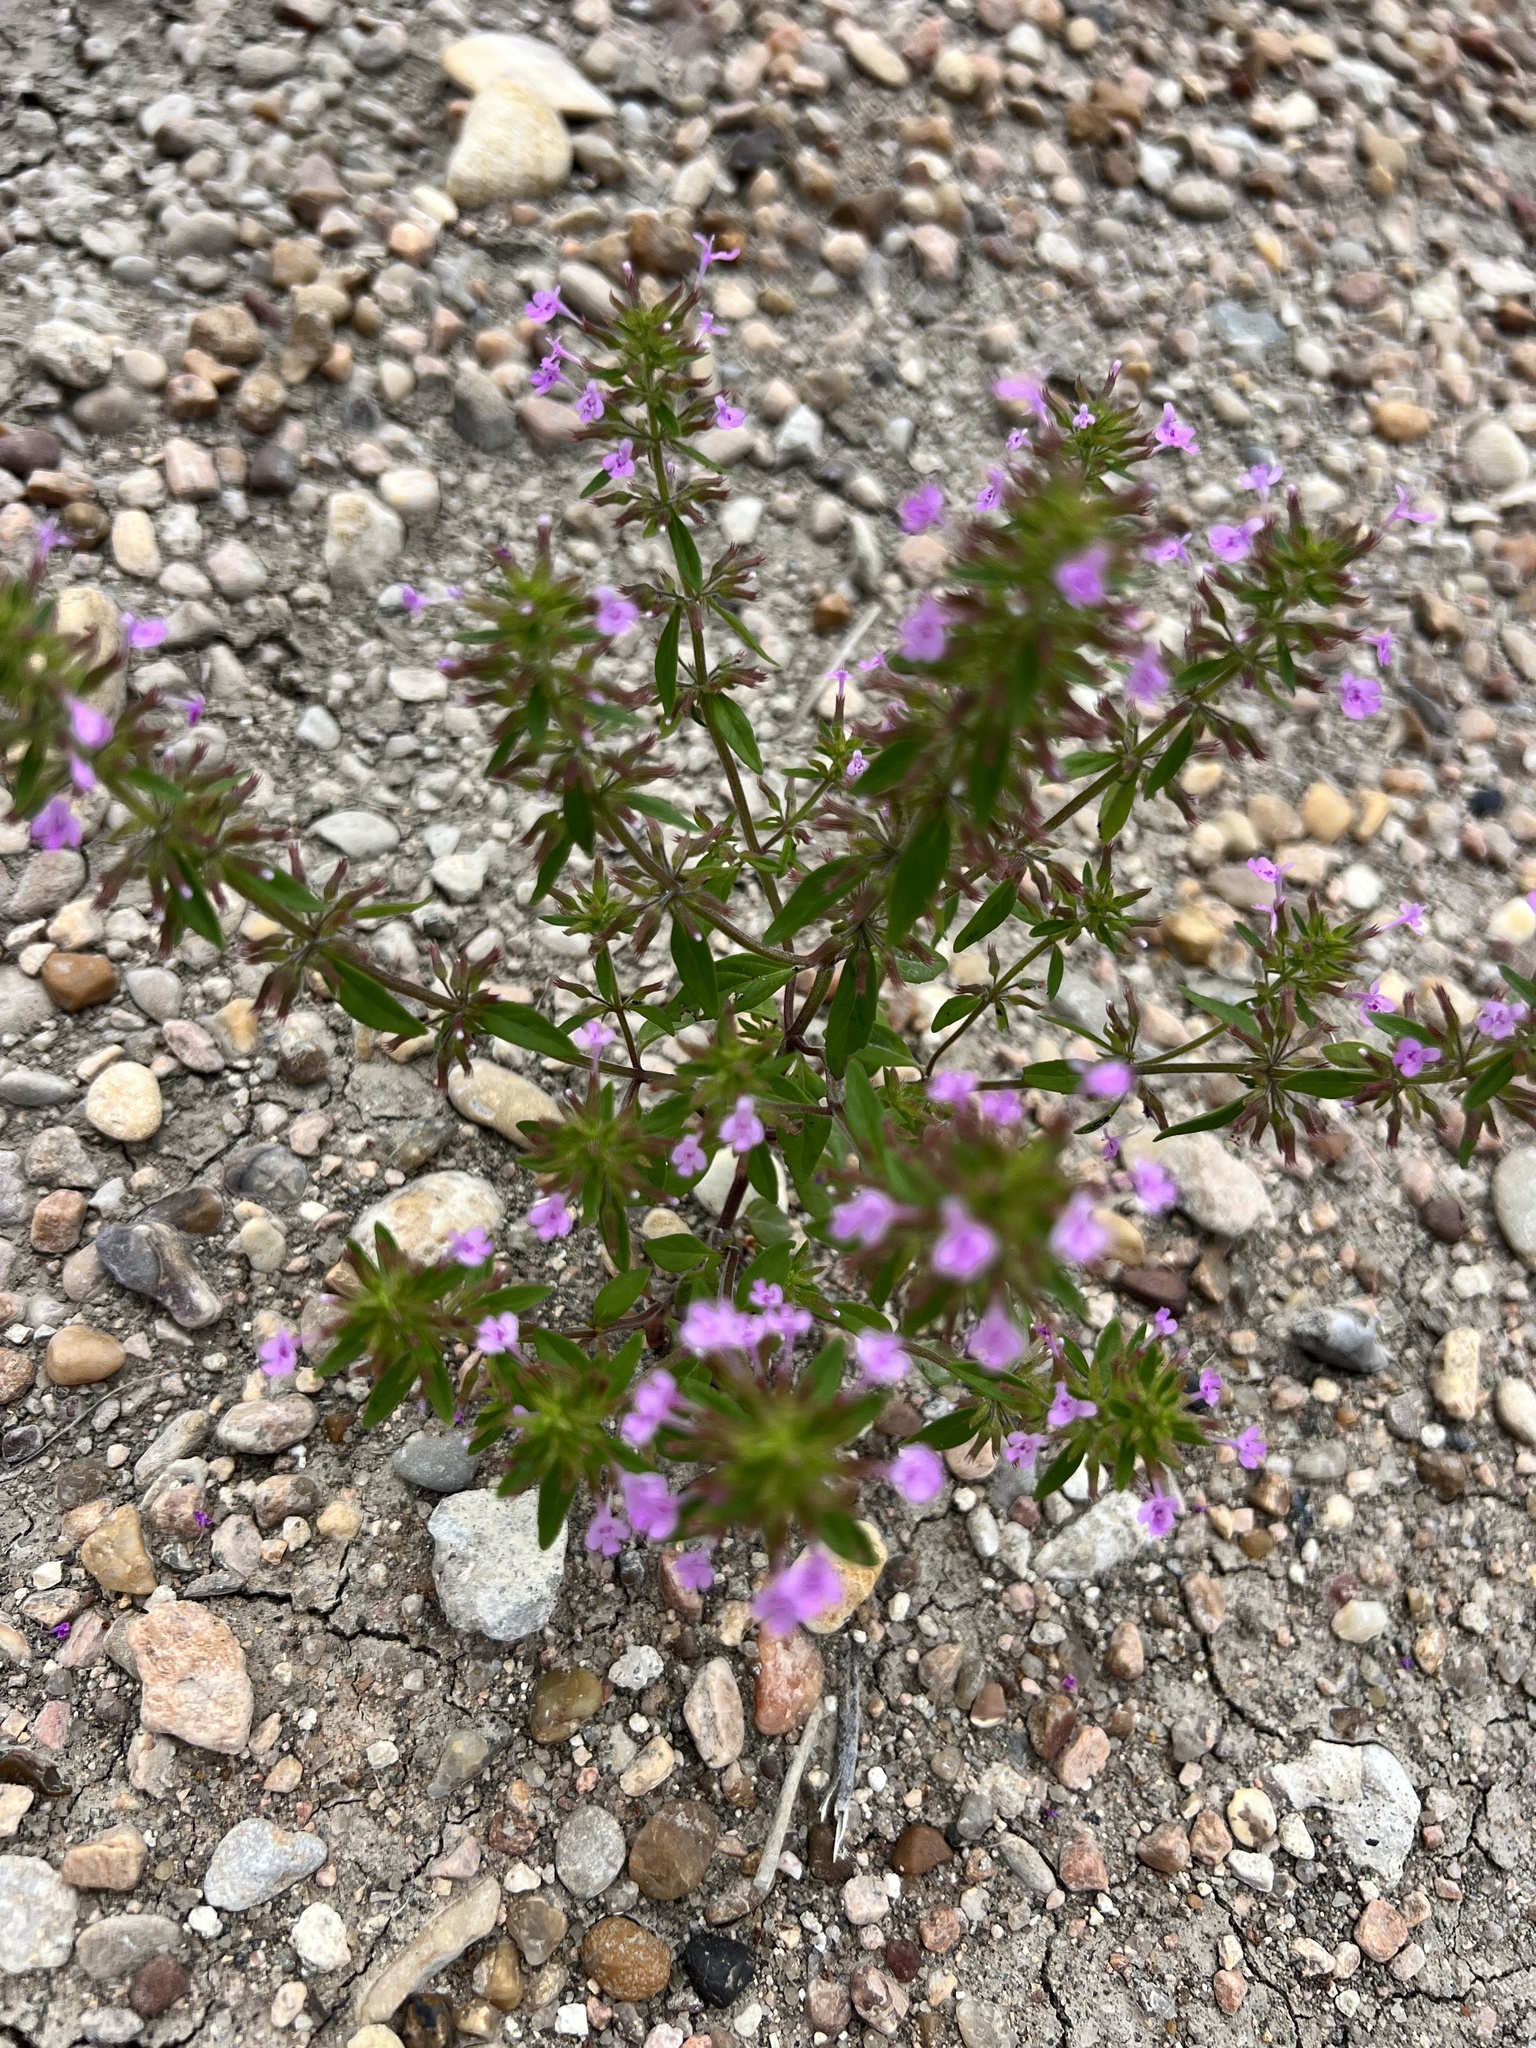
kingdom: Plantae
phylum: Tracheophyta
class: Magnoliopsida
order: Lamiales
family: Lamiaceae
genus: Hedeoma
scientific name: Hedeoma acinoides
